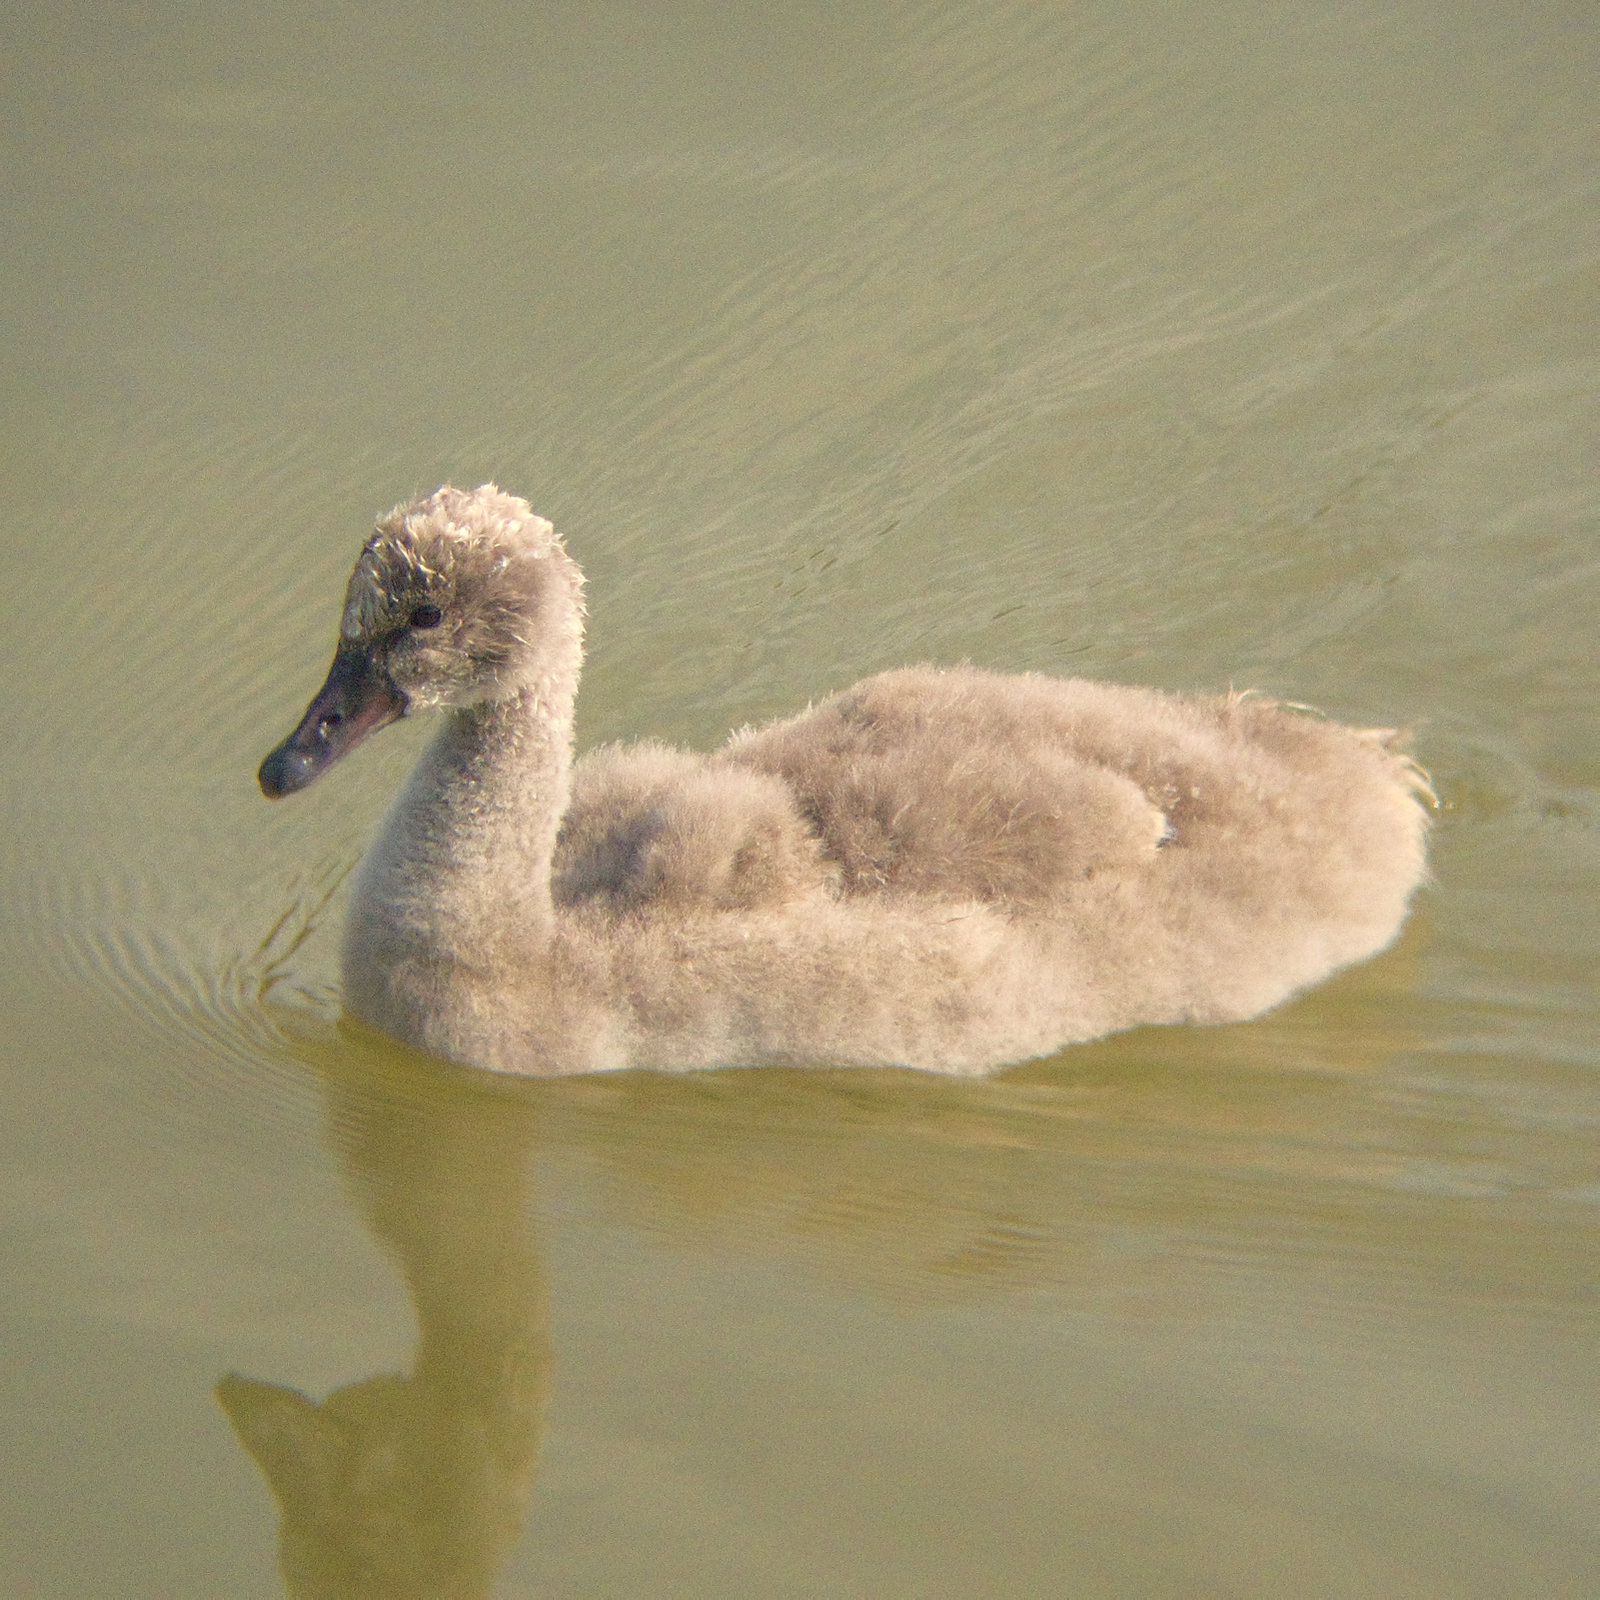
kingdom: Animalia
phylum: Chordata
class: Aves
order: Anseriformes
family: Anatidae
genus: Cygnus
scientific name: Cygnus atratus
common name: Black swan
